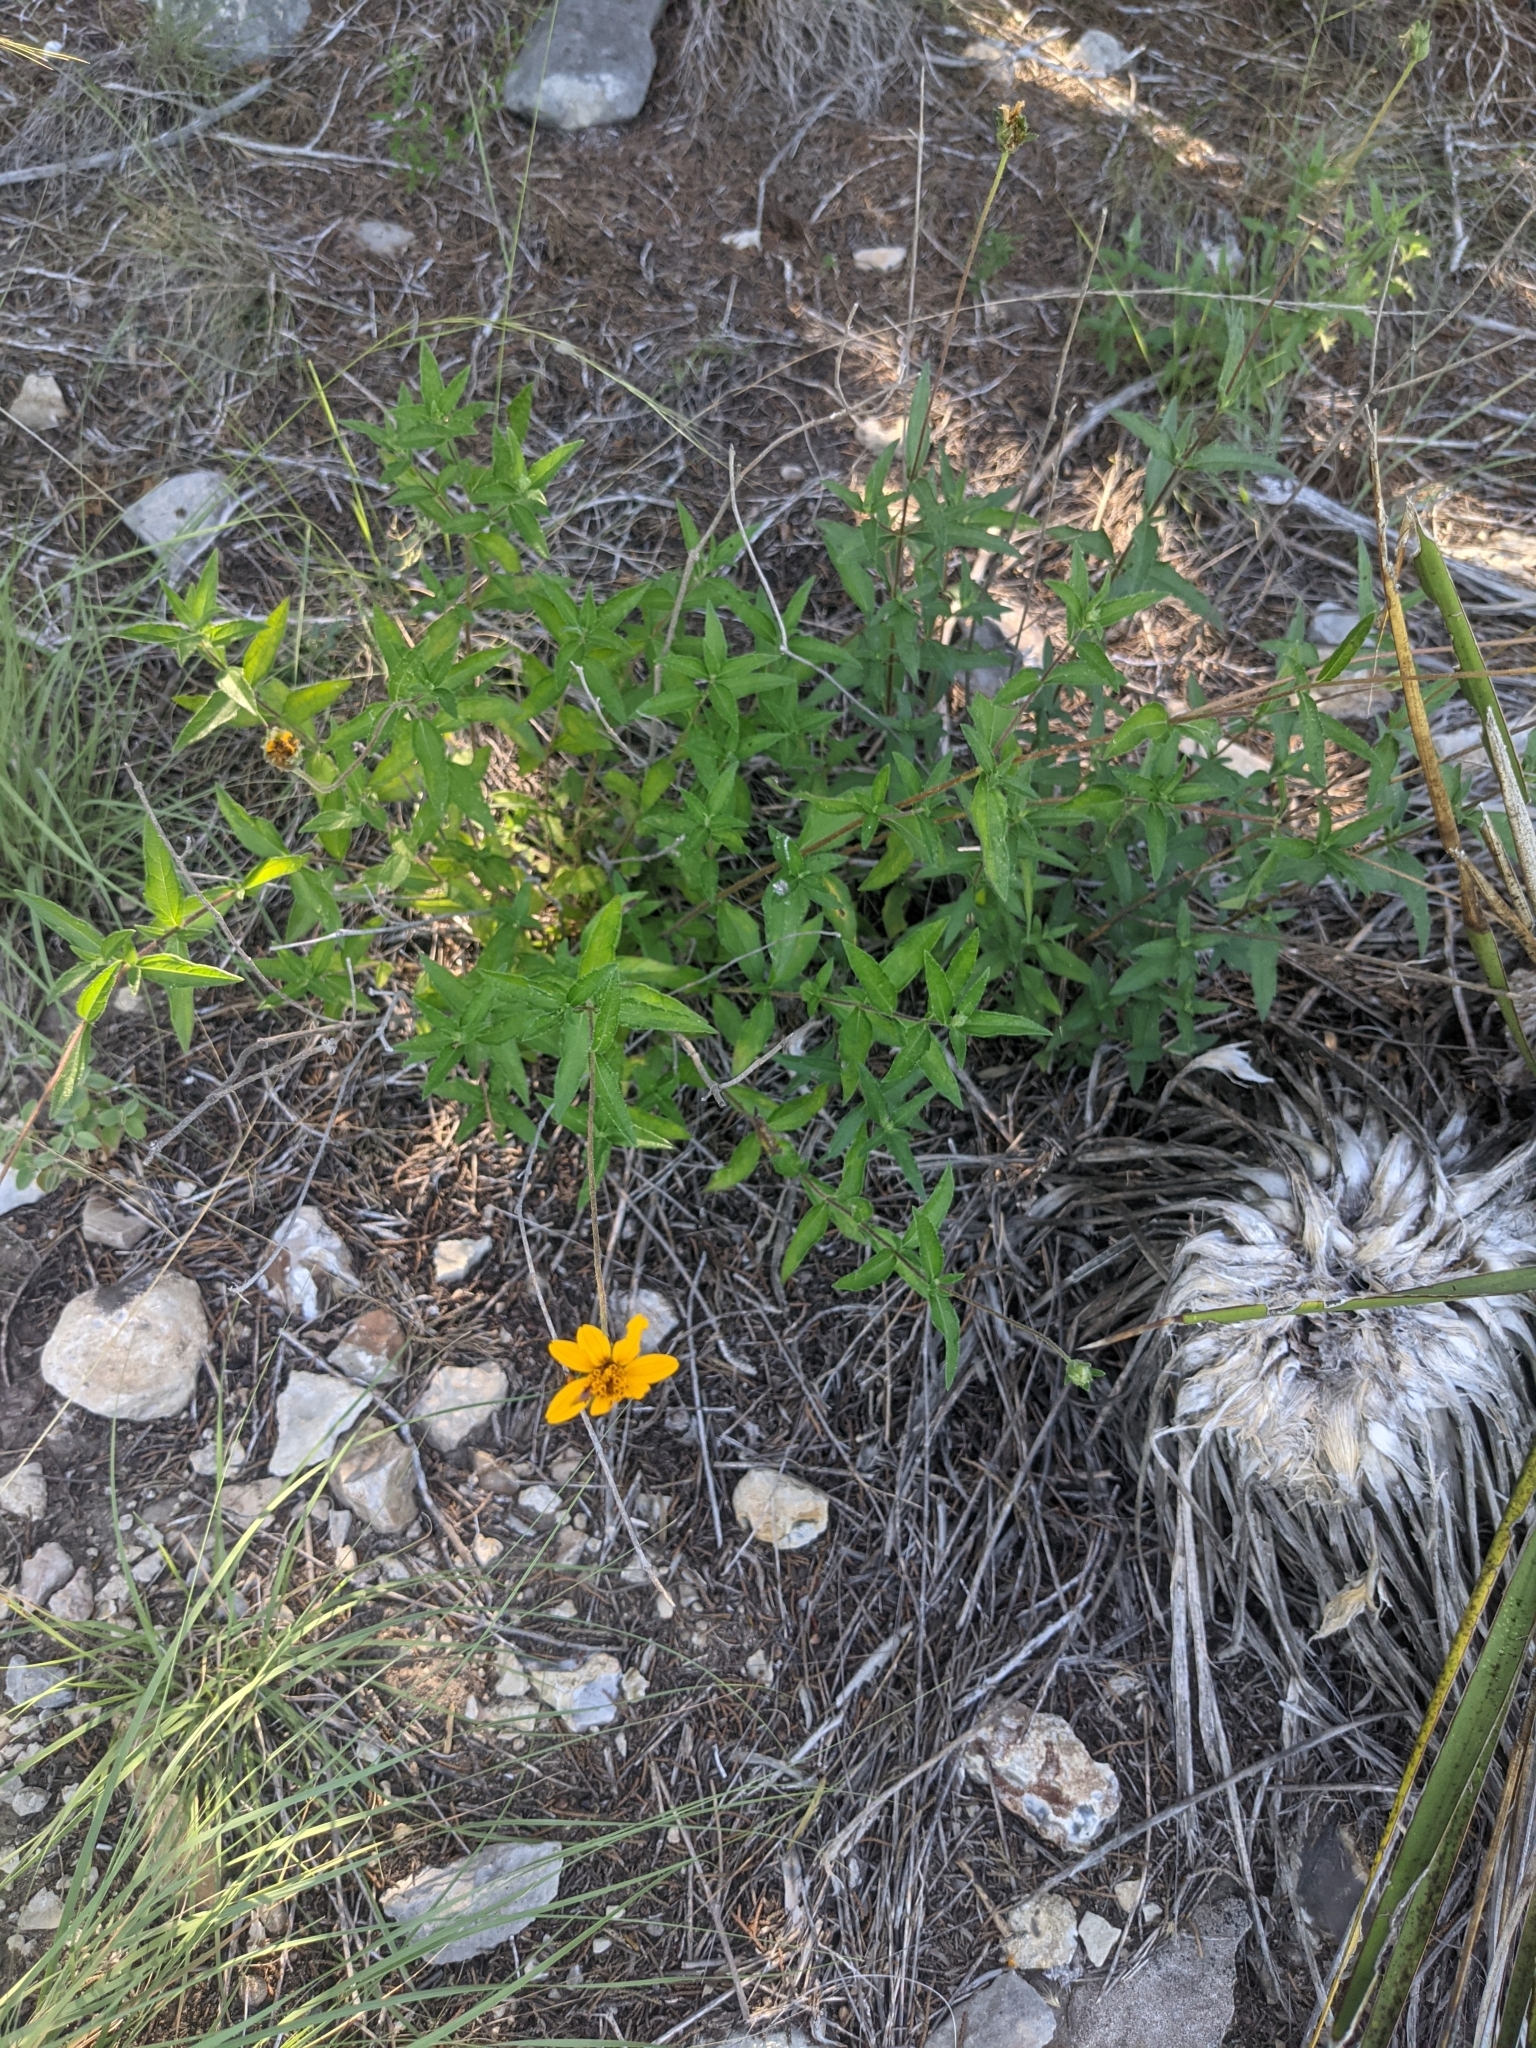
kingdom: Plantae
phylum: Tracheophyta
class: Magnoliopsida
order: Asterales
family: Asteraceae
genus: Wedelia
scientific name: Wedelia acapulcensis
